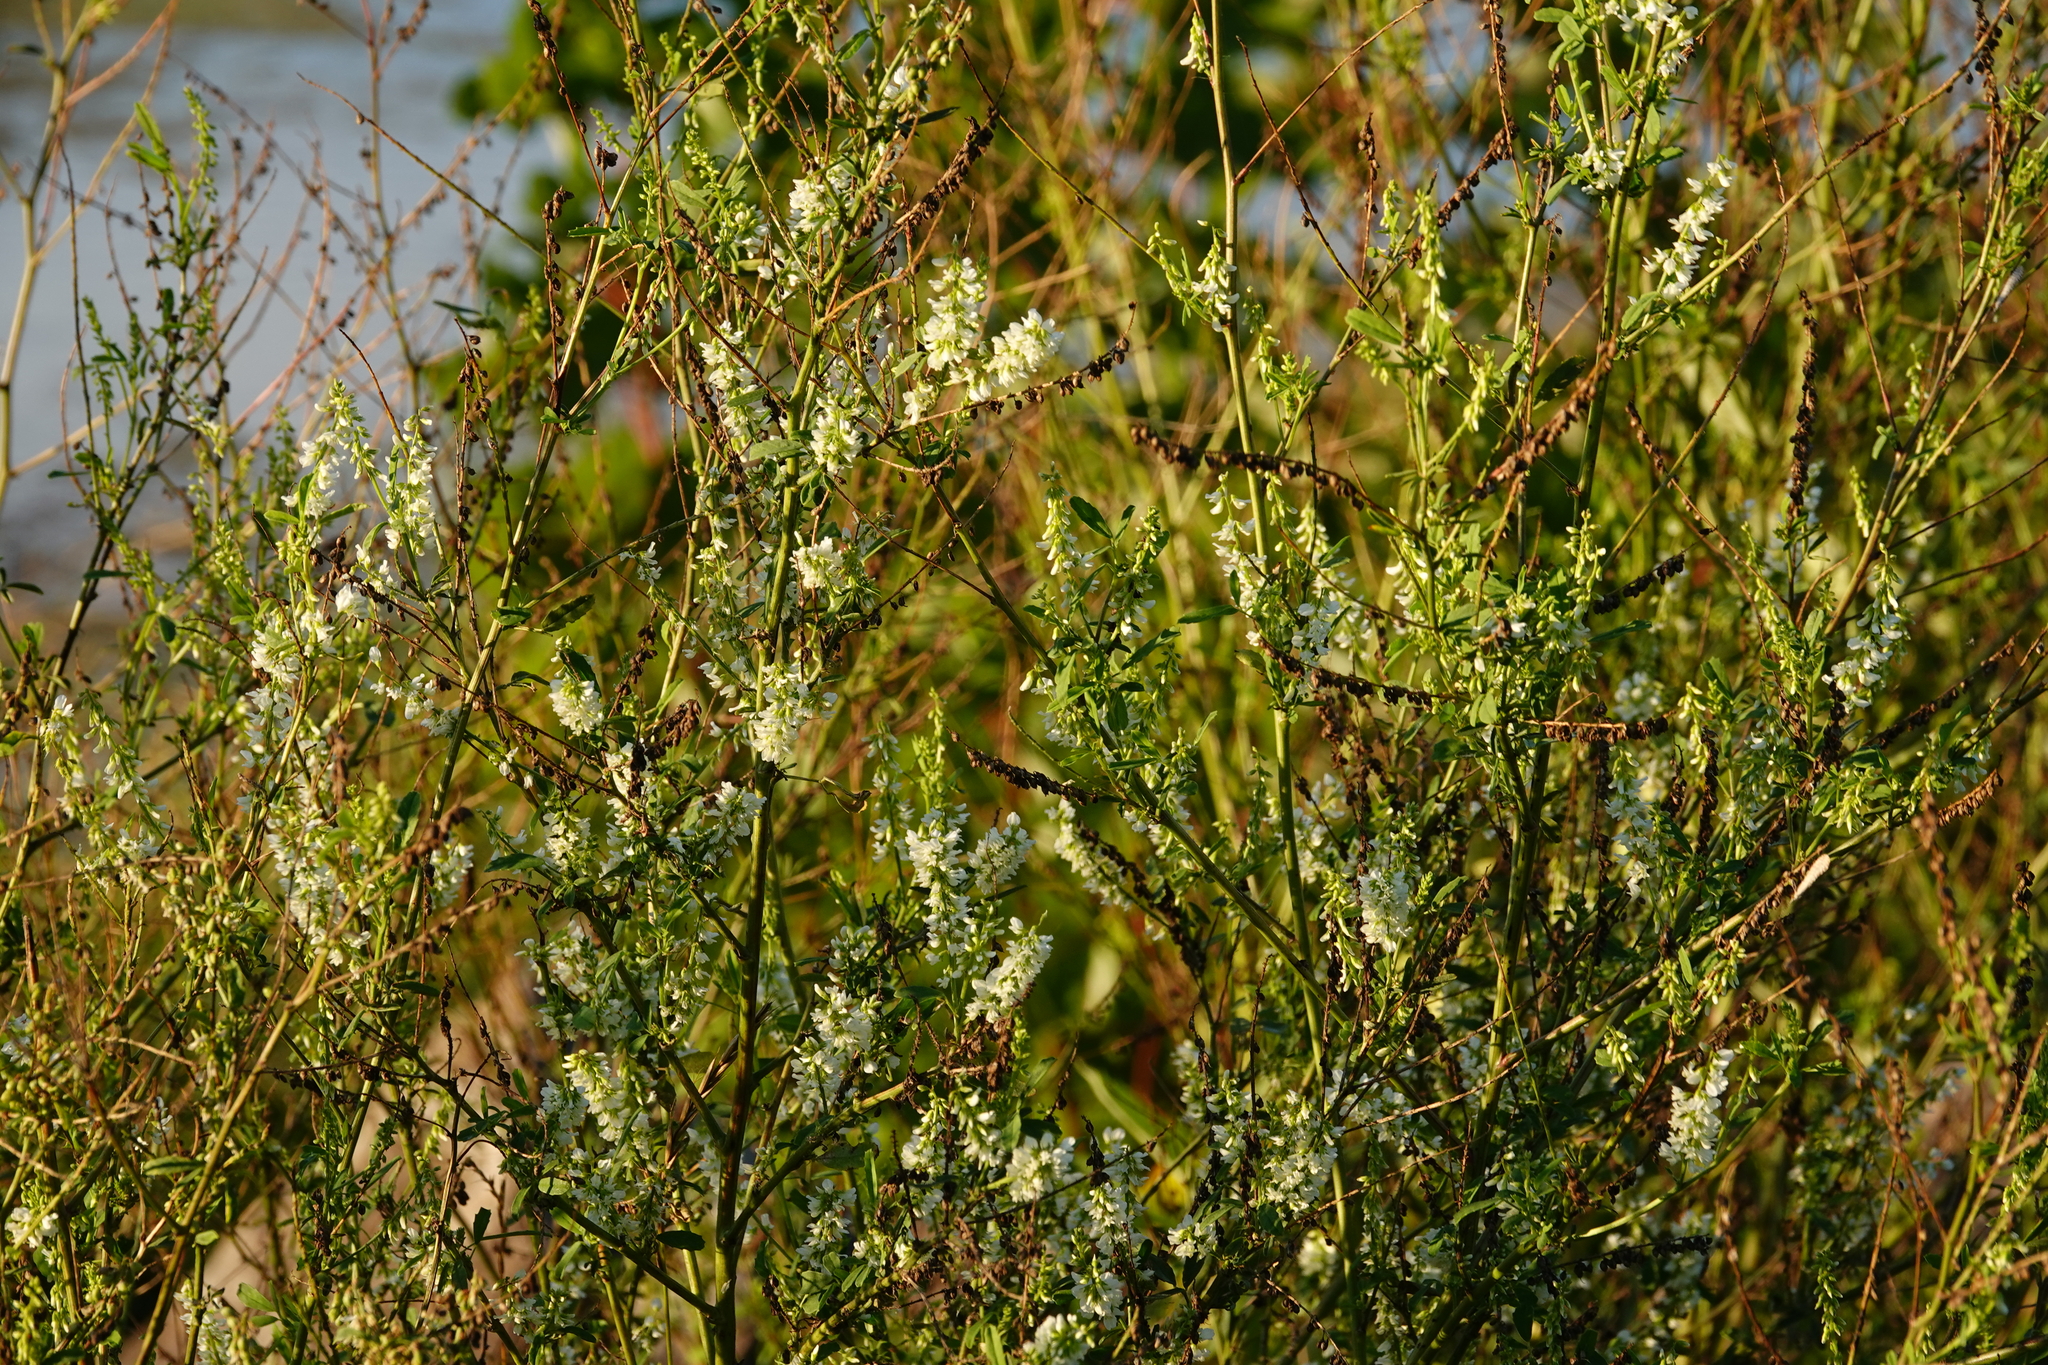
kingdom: Plantae
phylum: Tracheophyta
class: Magnoliopsida
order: Fabales
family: Fabaceae
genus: Melilotus
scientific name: Melilotus albus
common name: White melilot
